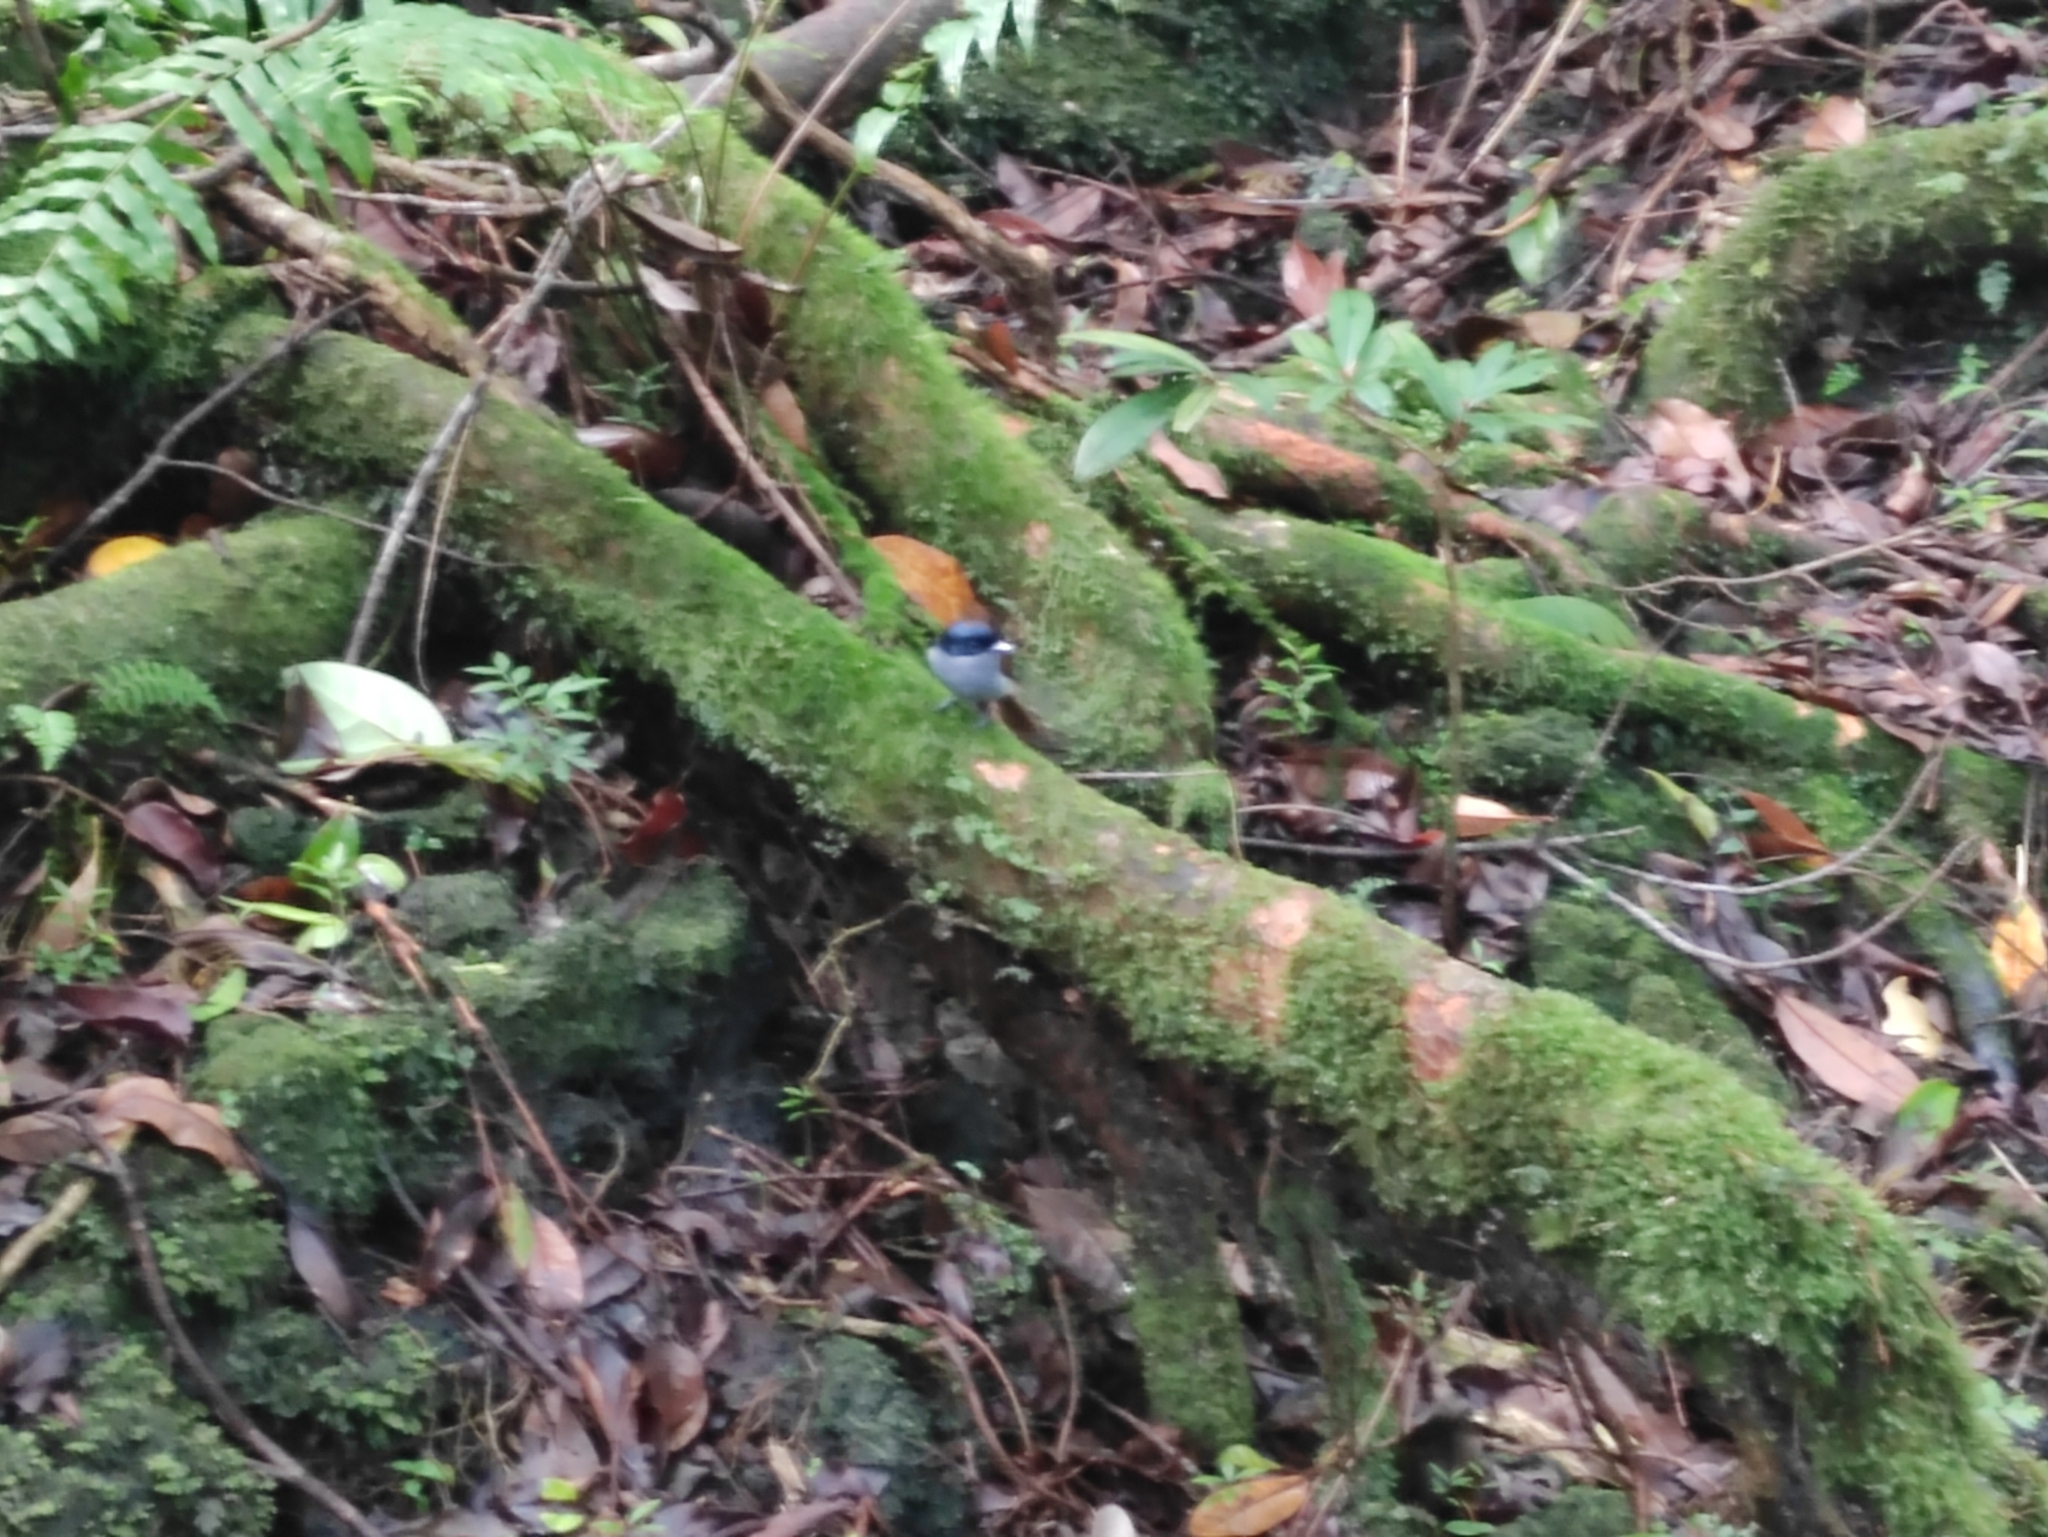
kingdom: Animalia
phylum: Chordata
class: Aves
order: Passeriformes
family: Monarchidae
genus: Terpsiphone
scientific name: Terpsiphone bourbonnensis
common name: Mascarene paradise flycatcher
